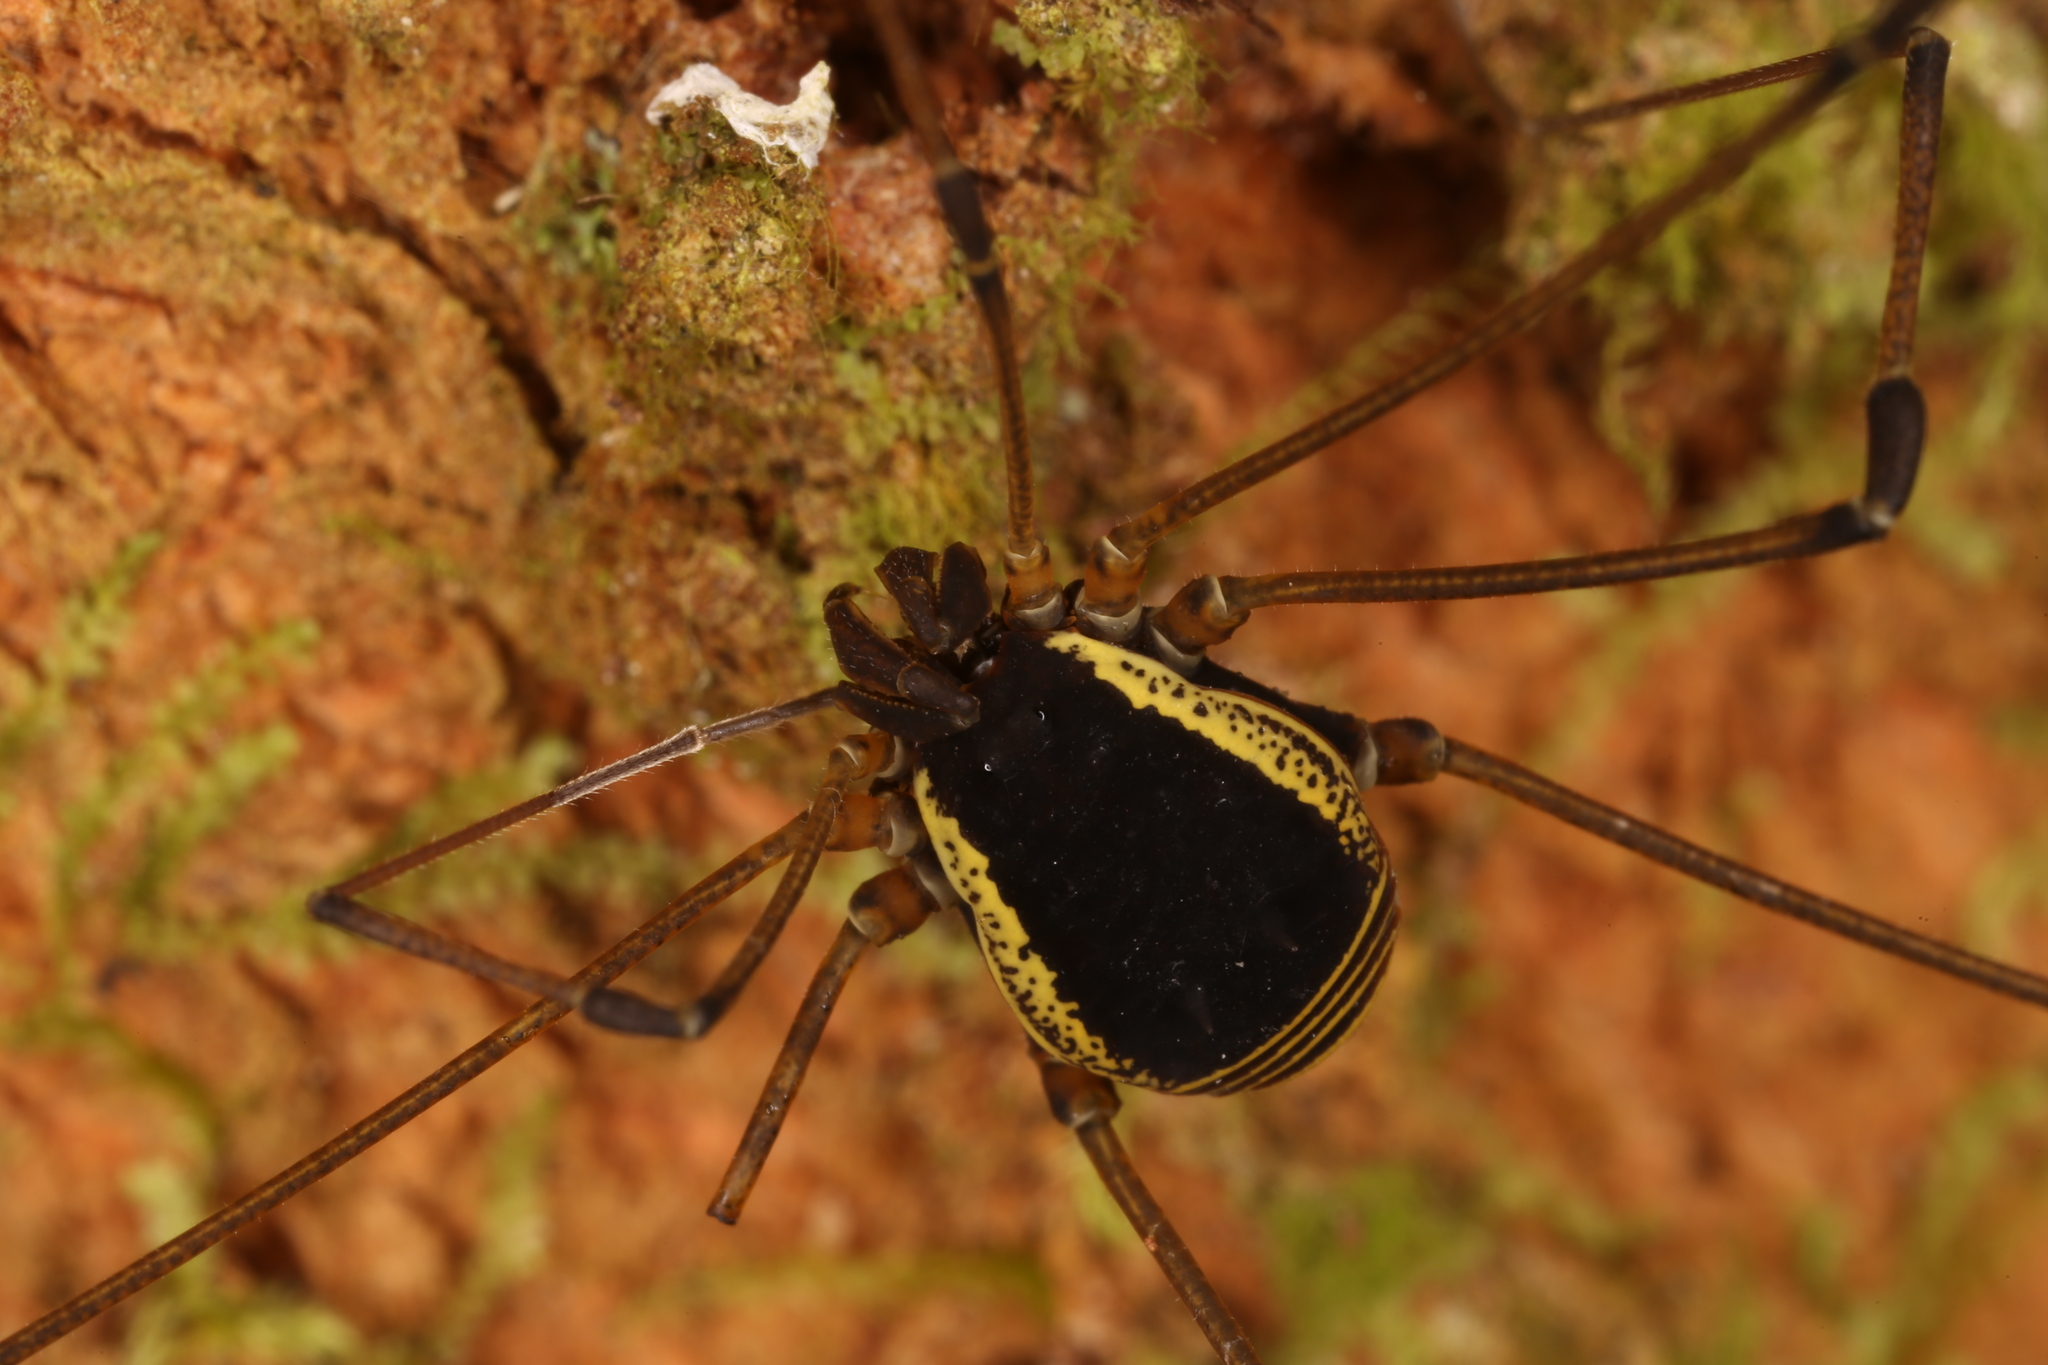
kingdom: Animalia
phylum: Arthropoda
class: Arachnida
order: Opiliones
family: Cosmetidae
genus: Cynorta
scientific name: Cynorta marginalis
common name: Harvestmen
